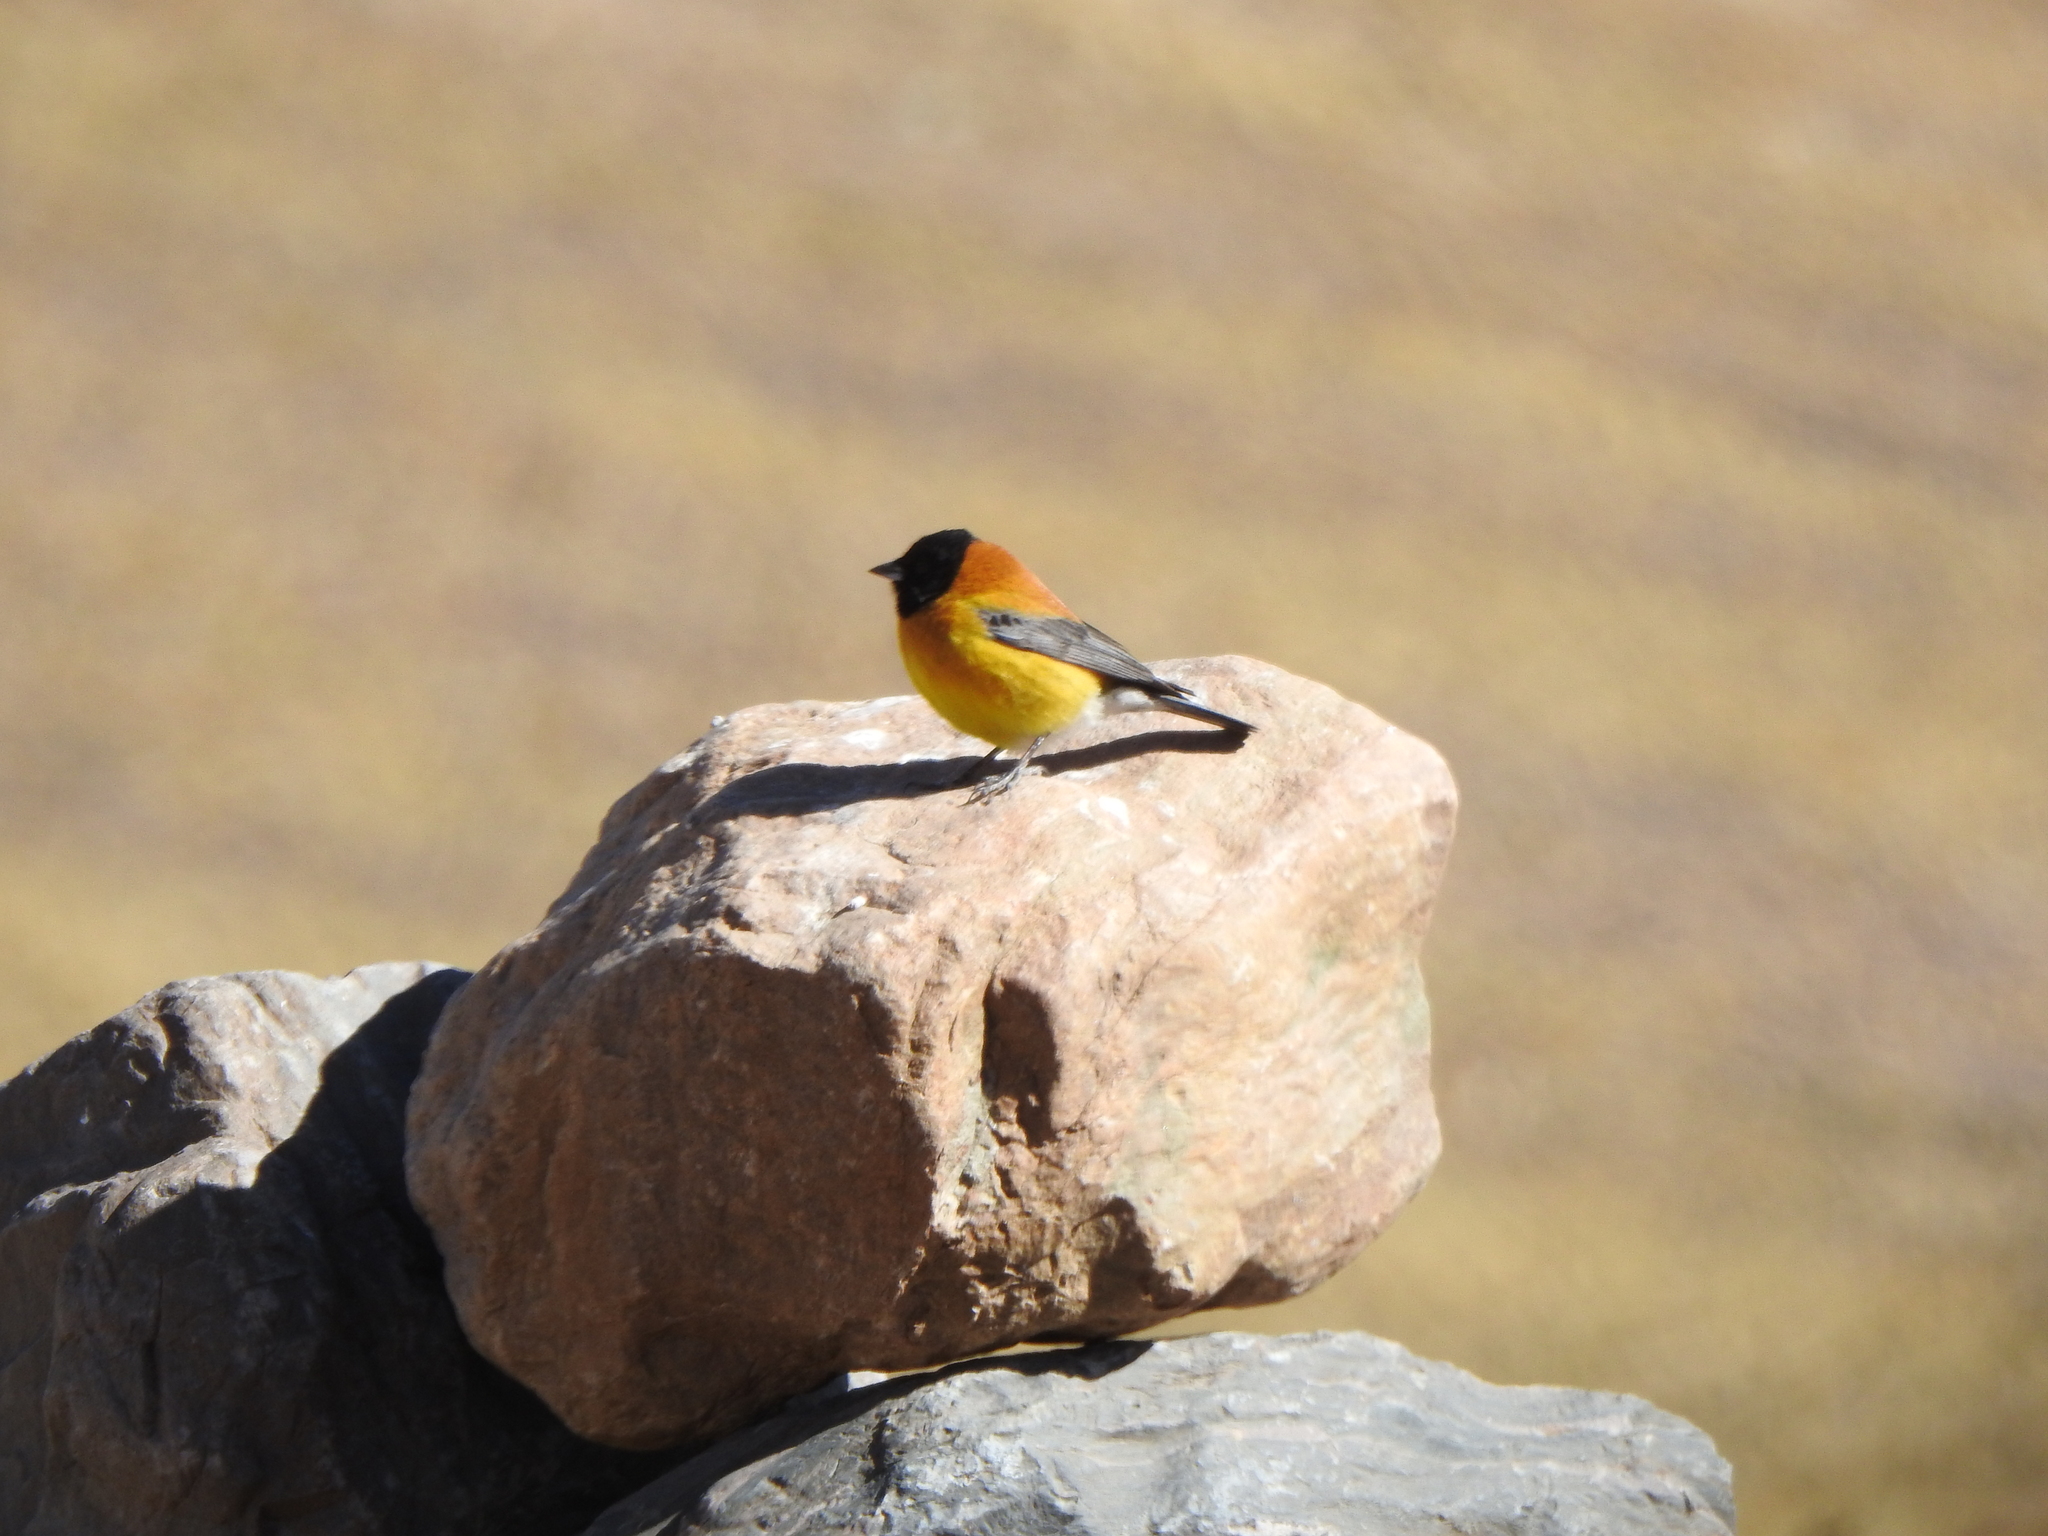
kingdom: Animalia
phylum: Chordata
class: Aves
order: Passeriformes
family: Thraupidae
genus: Phrygilus
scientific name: Phrygilus atriceps
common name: Black-hooded sierra finch
